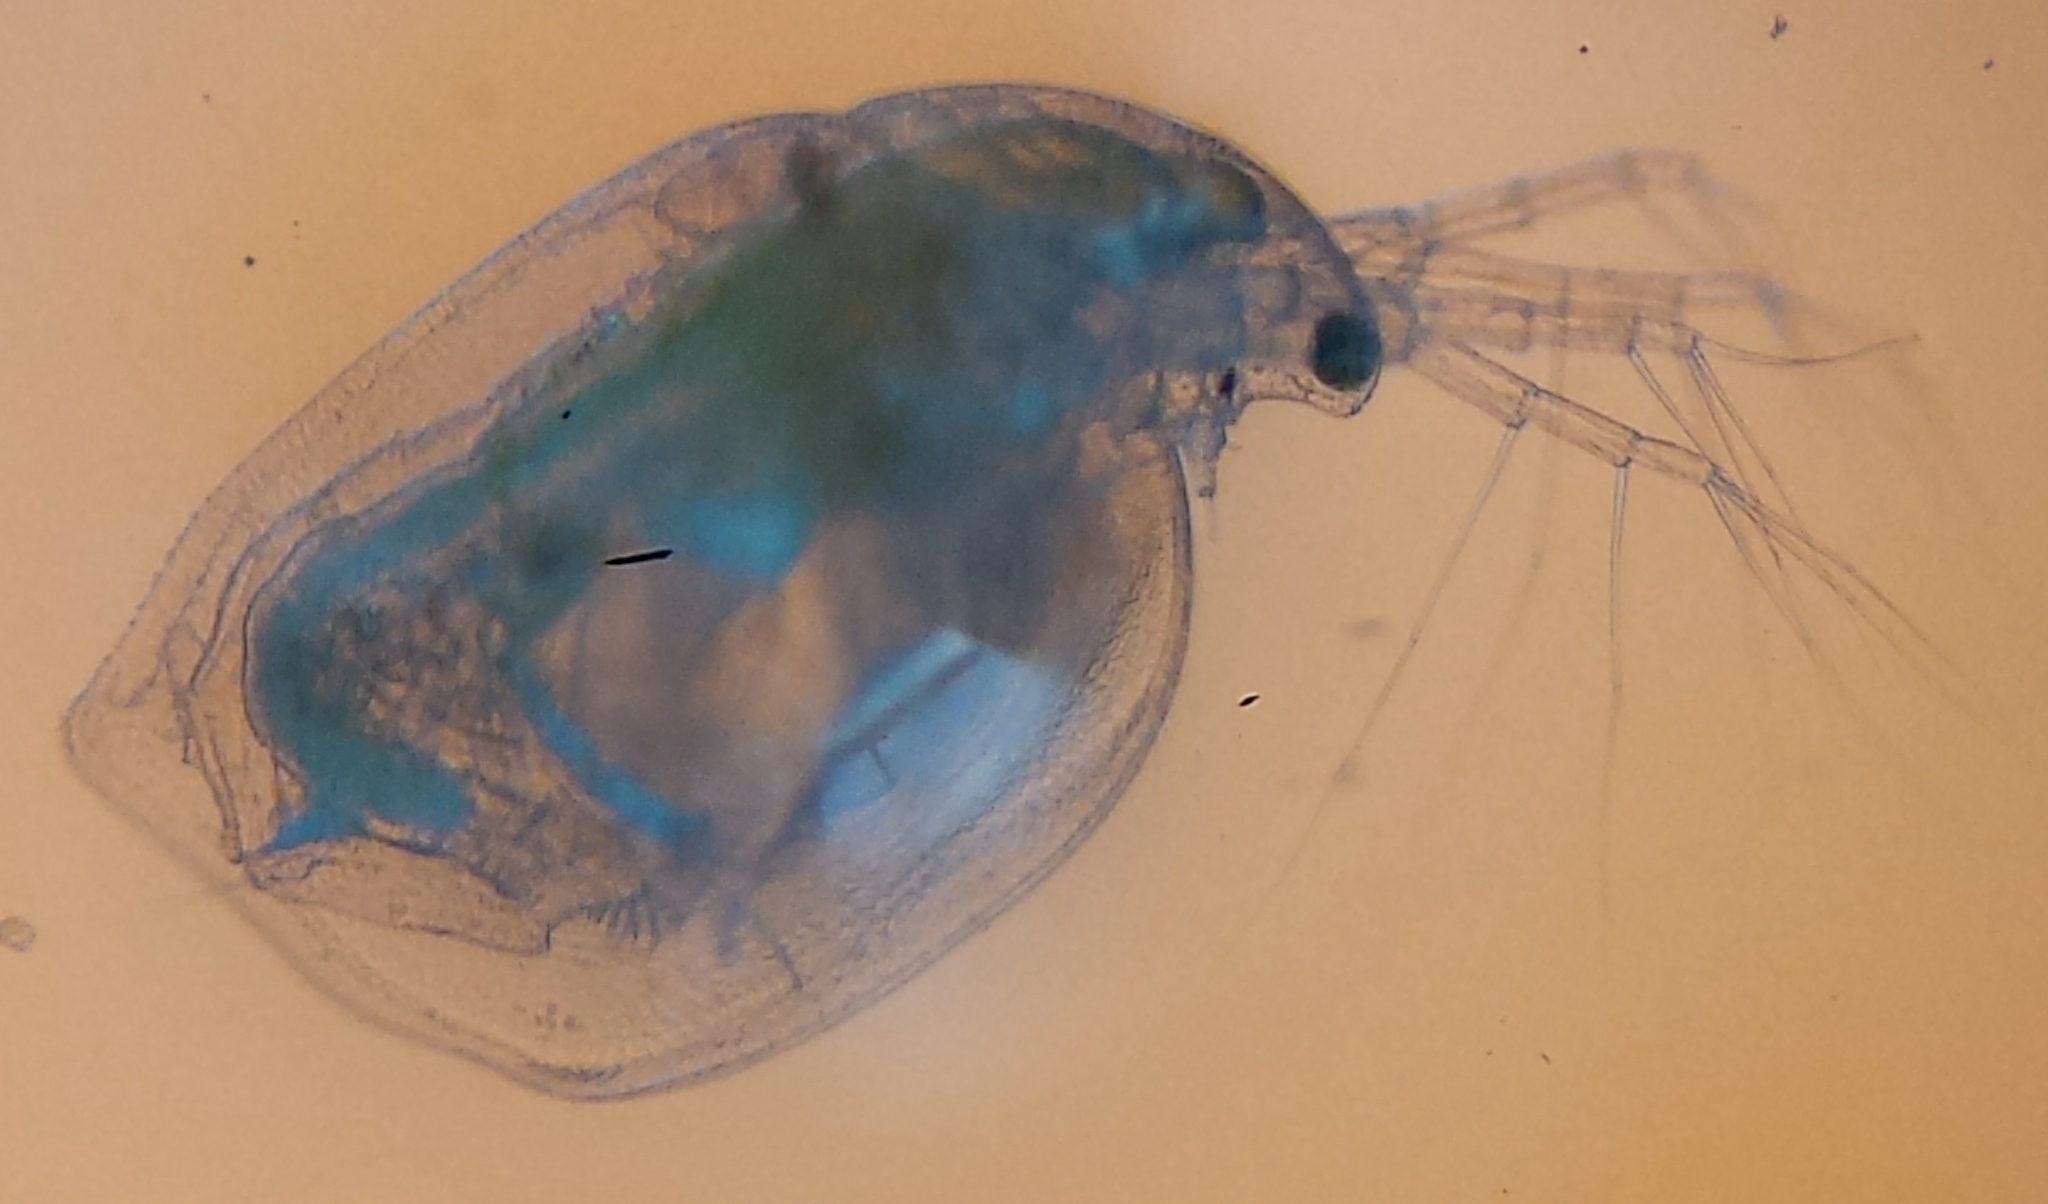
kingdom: Animalia
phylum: Arthropoda
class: Branchiopoda
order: Diplostraca
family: Daphniidae
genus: Simocephalus
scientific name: Simocephalus serrulatus
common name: Water flea
